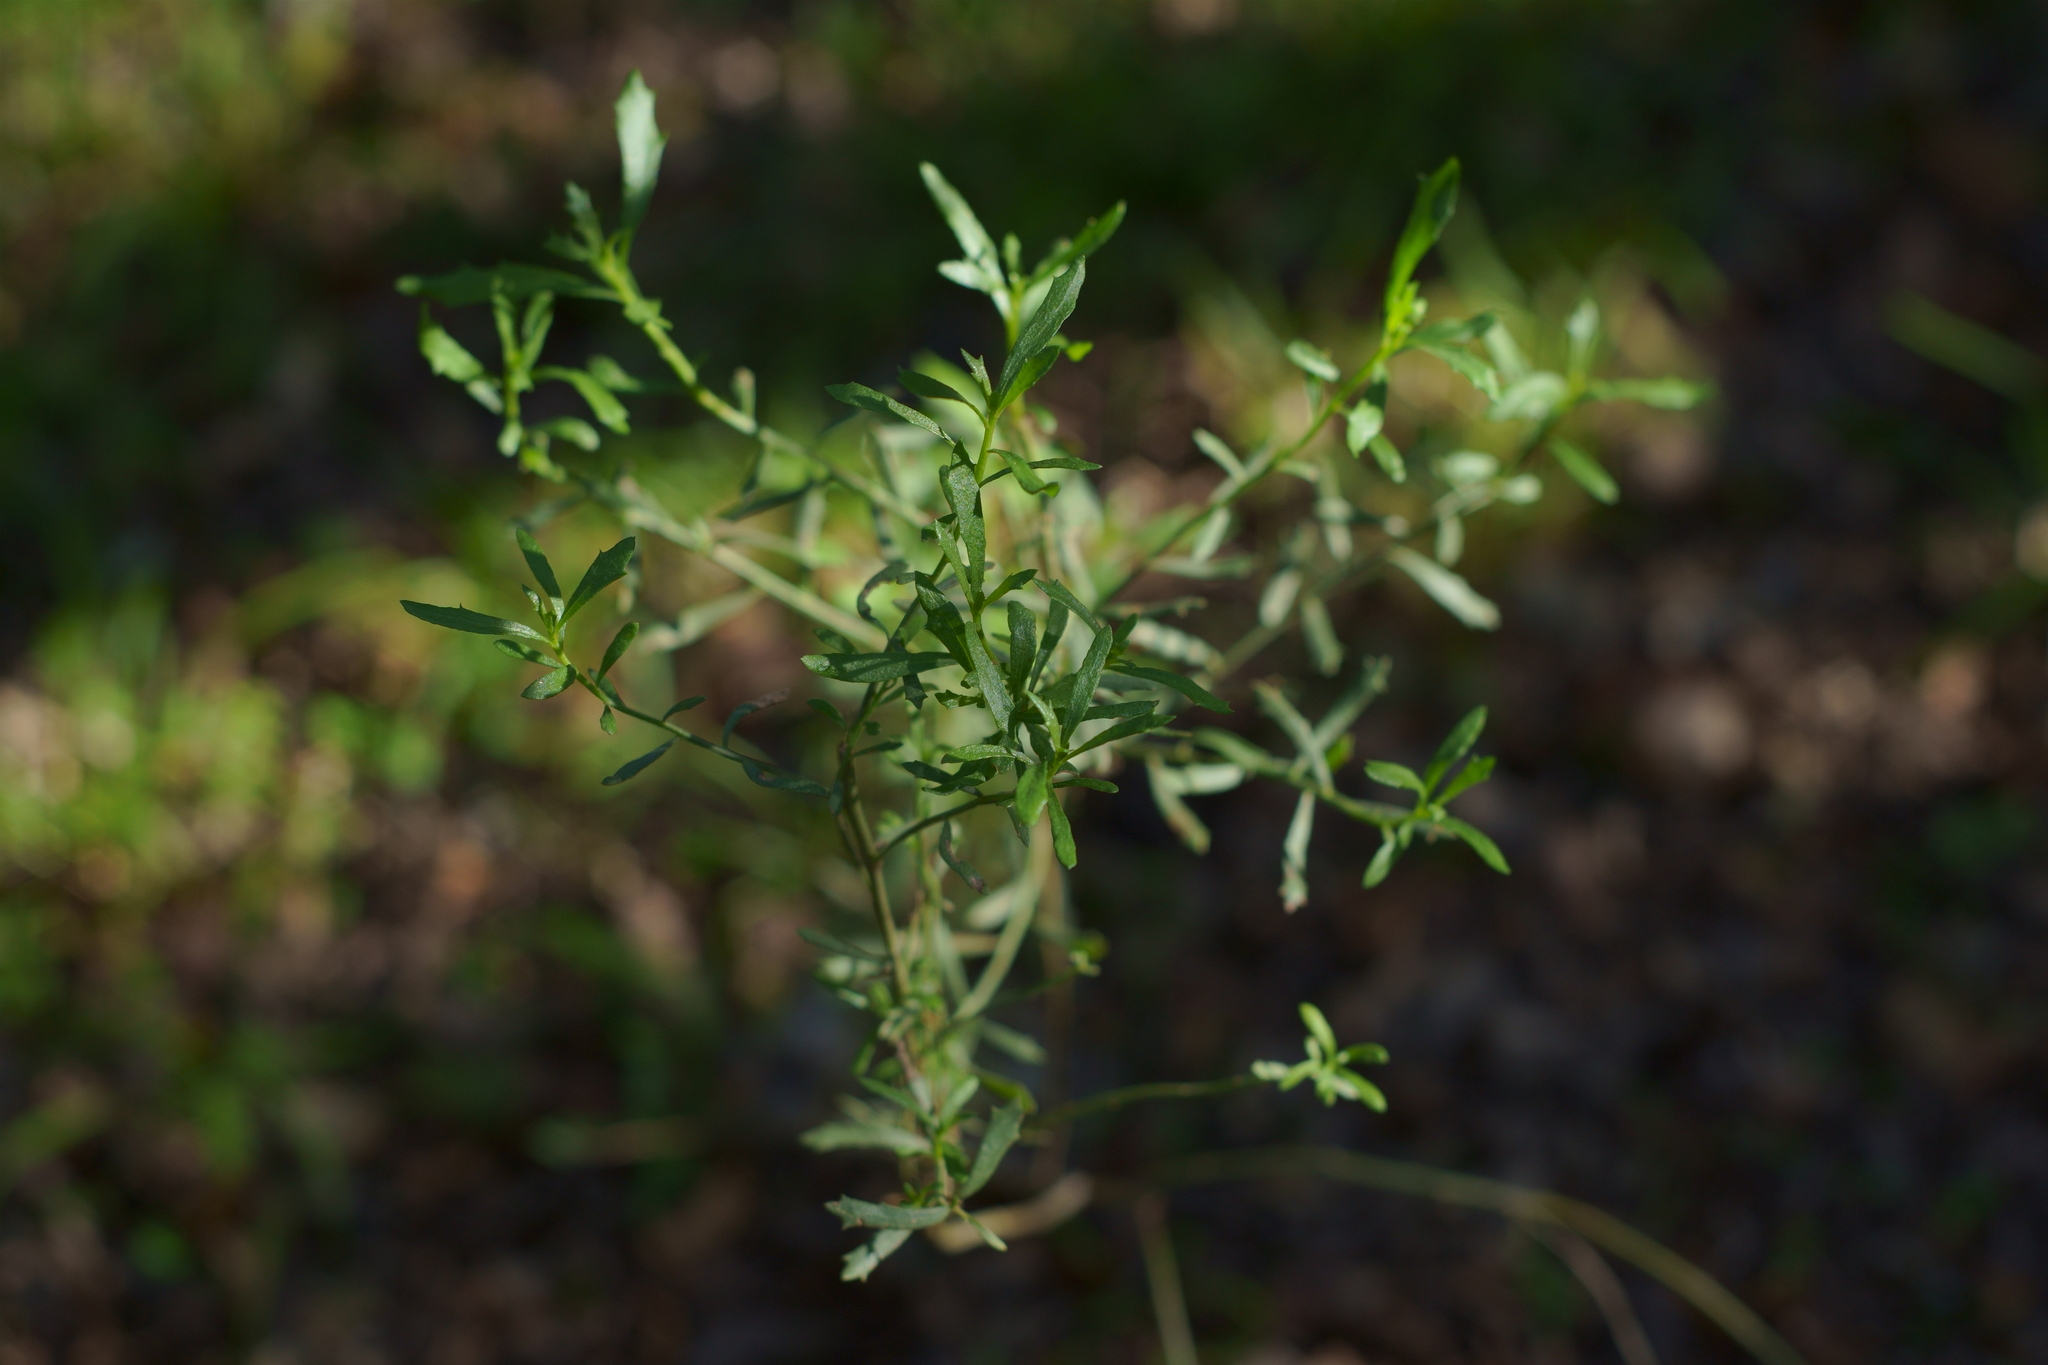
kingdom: Plantae
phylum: Tracheophyta
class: Magnoliopsida
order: Asterales
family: Asteraceae
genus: Baccharis
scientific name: Baccharis pilularis
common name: Coyotebrush
